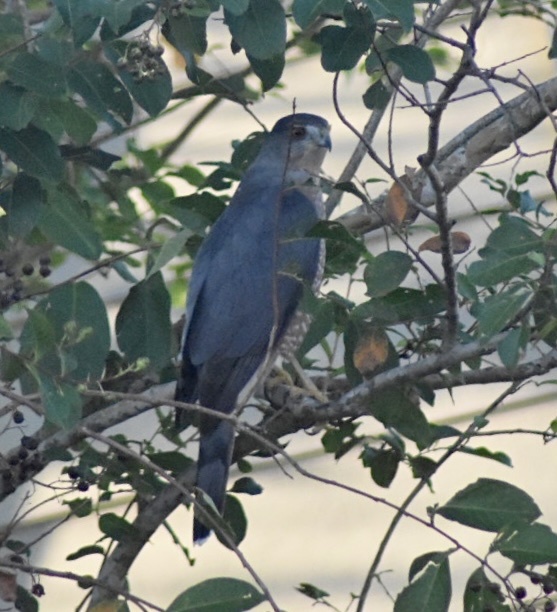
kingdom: Animalia
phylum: Chordata
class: Aves
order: Accipitriformes
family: Accipitridae
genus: Accipiter
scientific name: Accipiter cooperii
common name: Cooper's hawk
